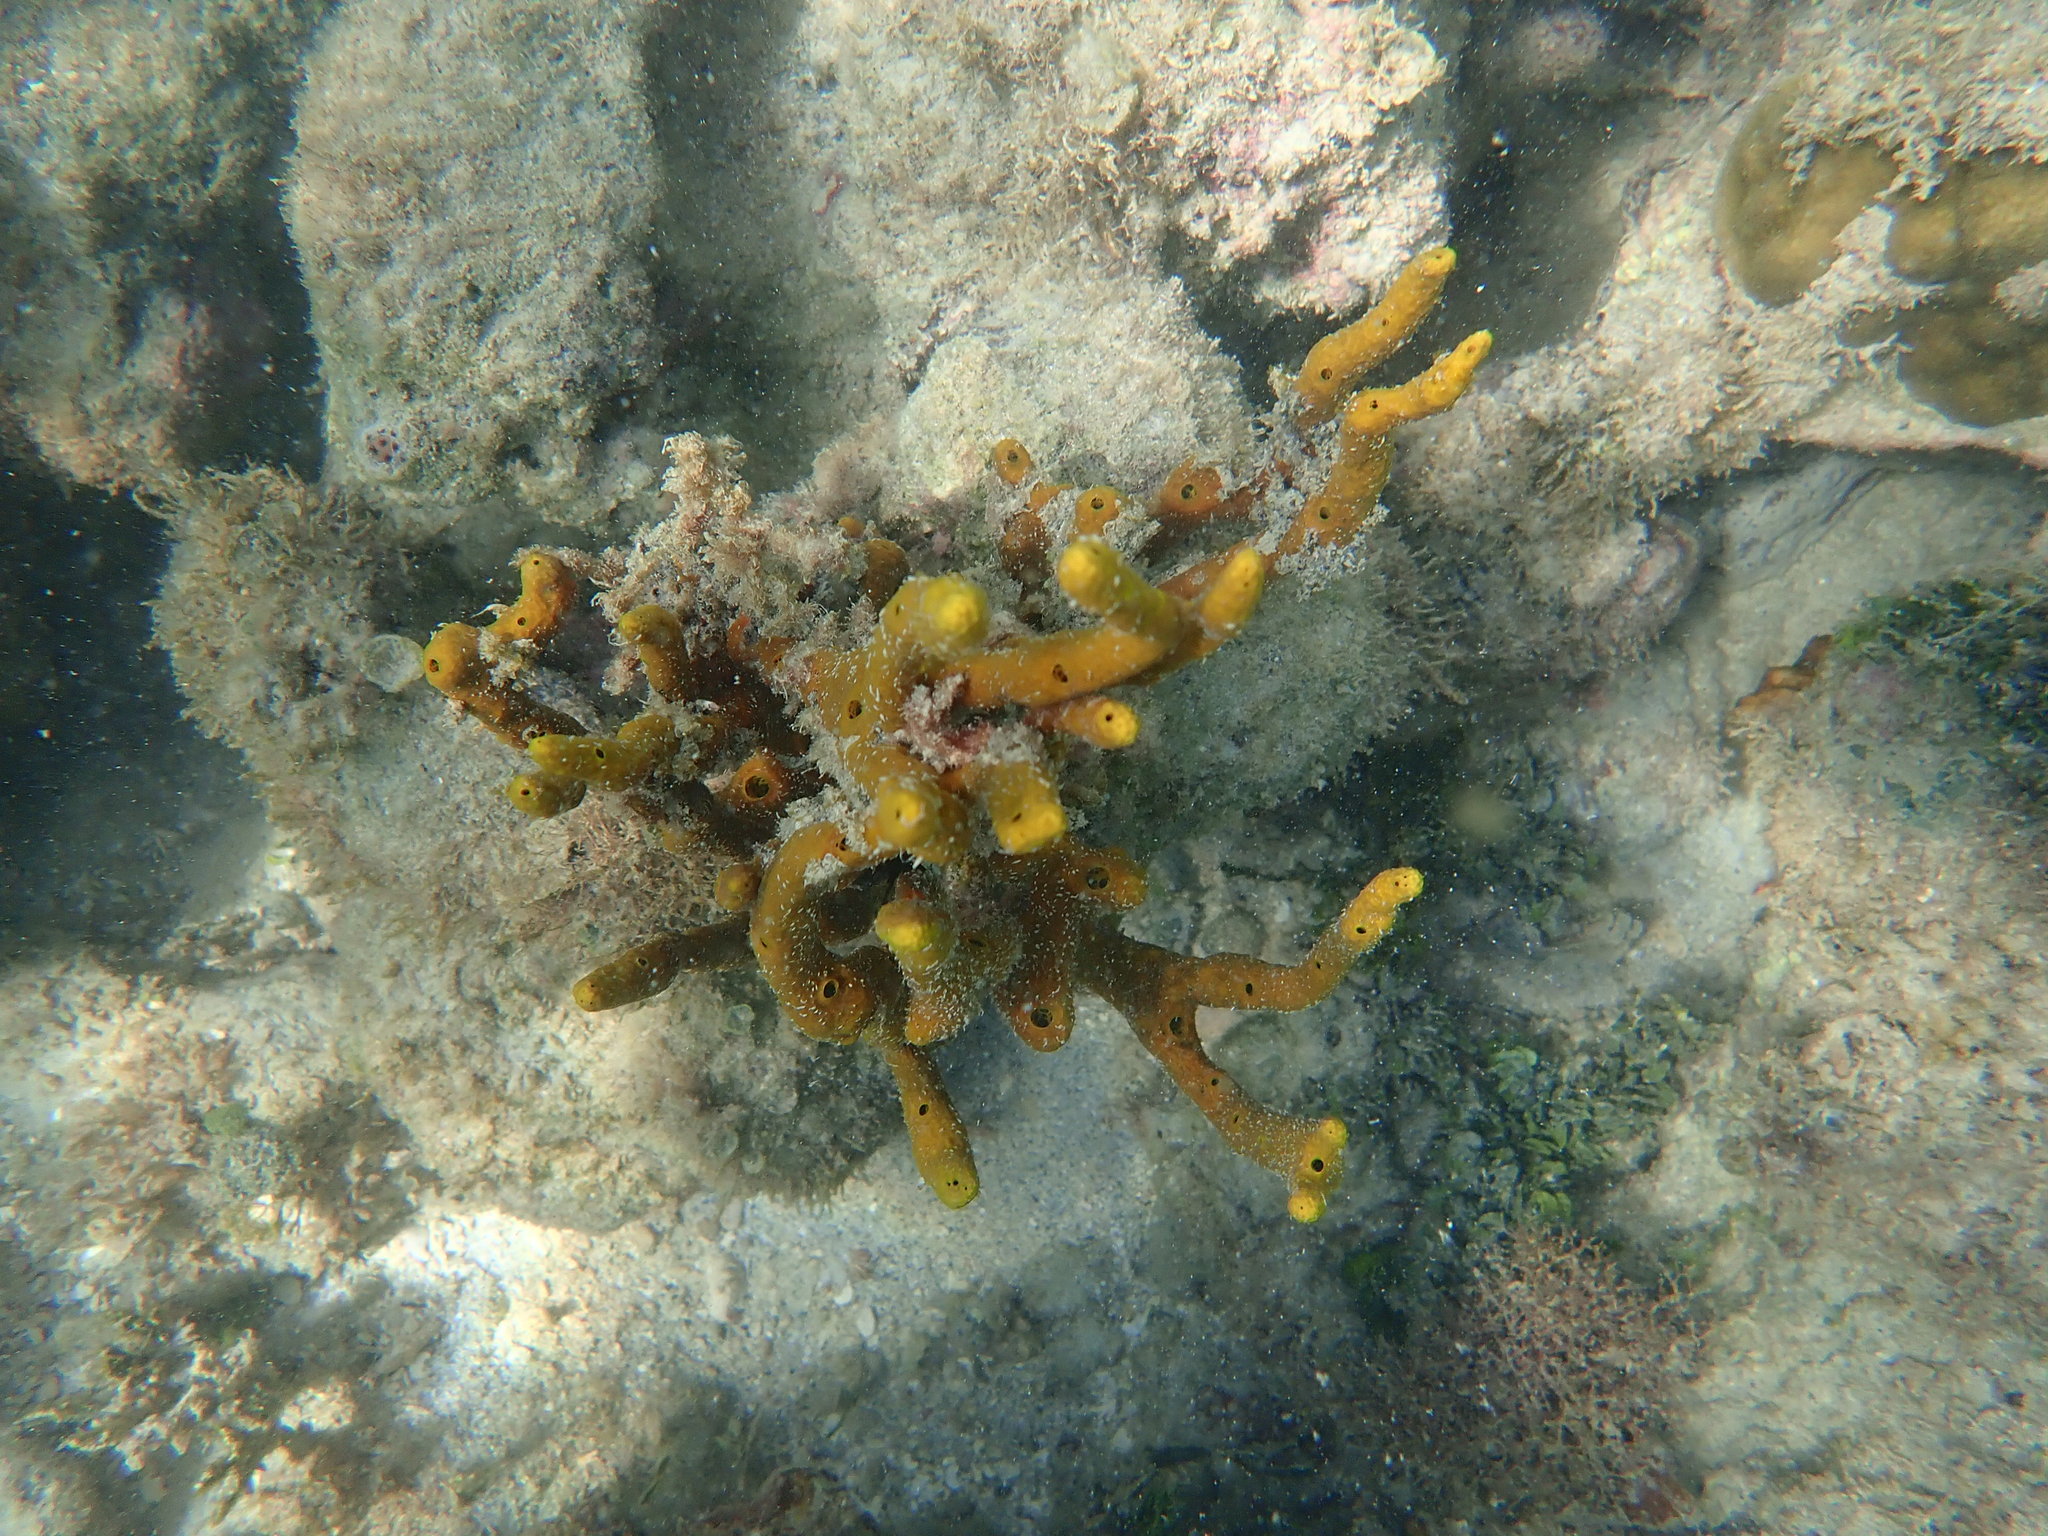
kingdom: Animalia
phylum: Porifera
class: Demospongiae
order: Verongiida
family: Aplysinidae
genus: Aplysina
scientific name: Aplysina fulva
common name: Scattered pore rope sponge
